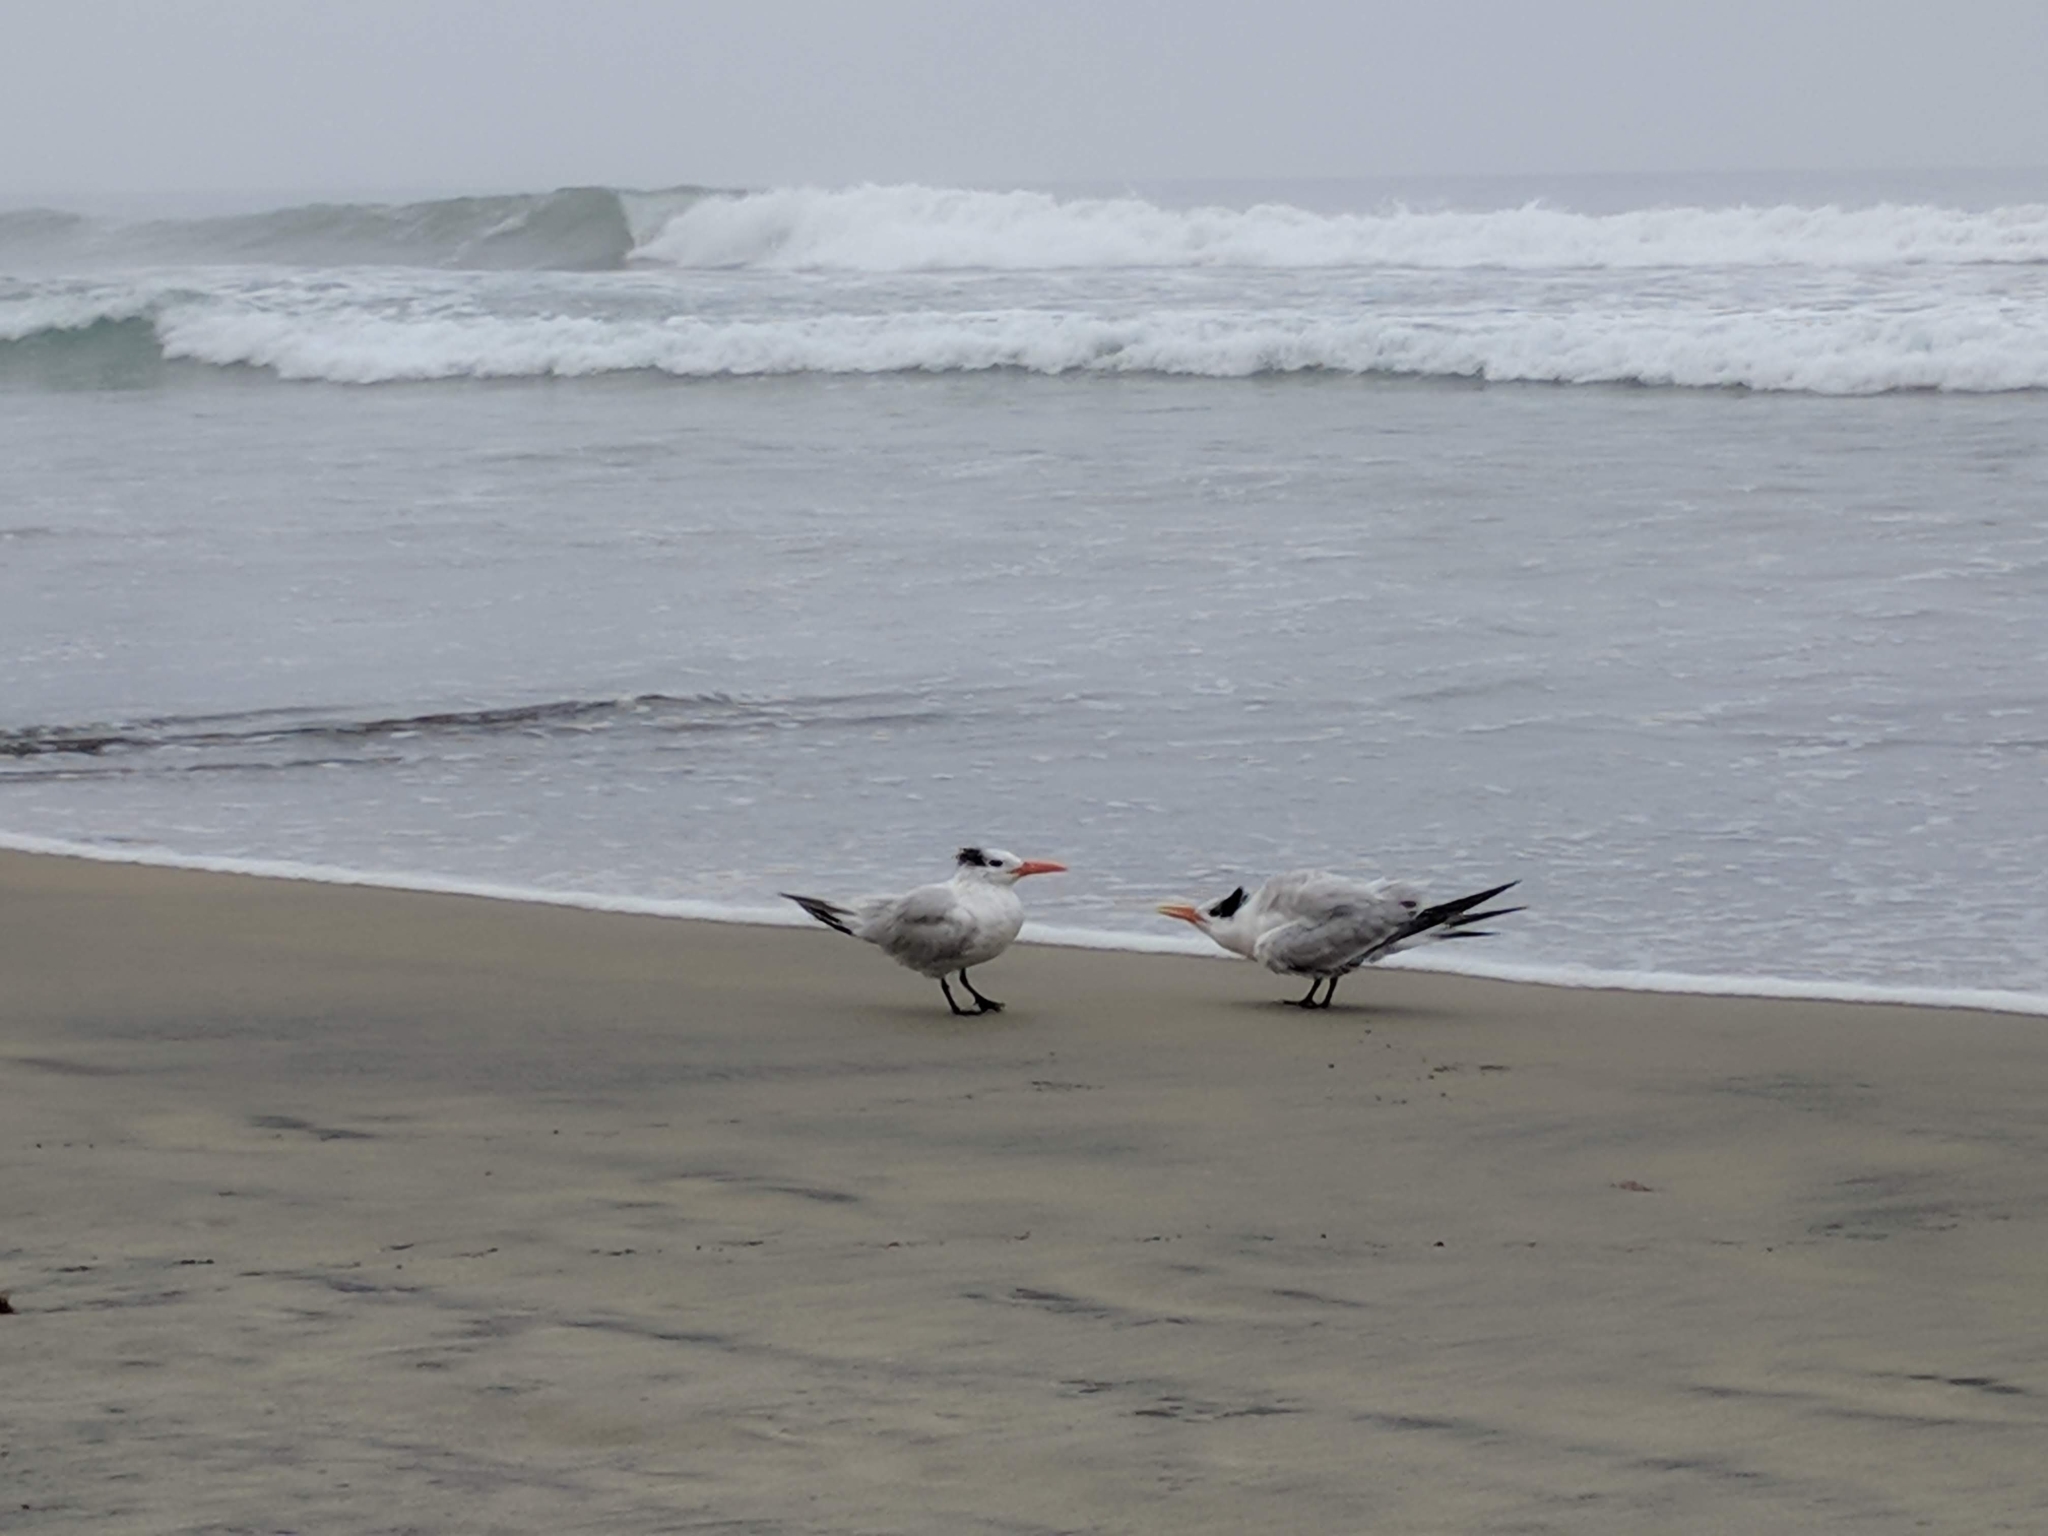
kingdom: Animalia
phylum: Chordata
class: Aves
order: Charadriiformes
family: Laridae
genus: Thalasseus
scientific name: Thalasseus maximus
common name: Royal tern
